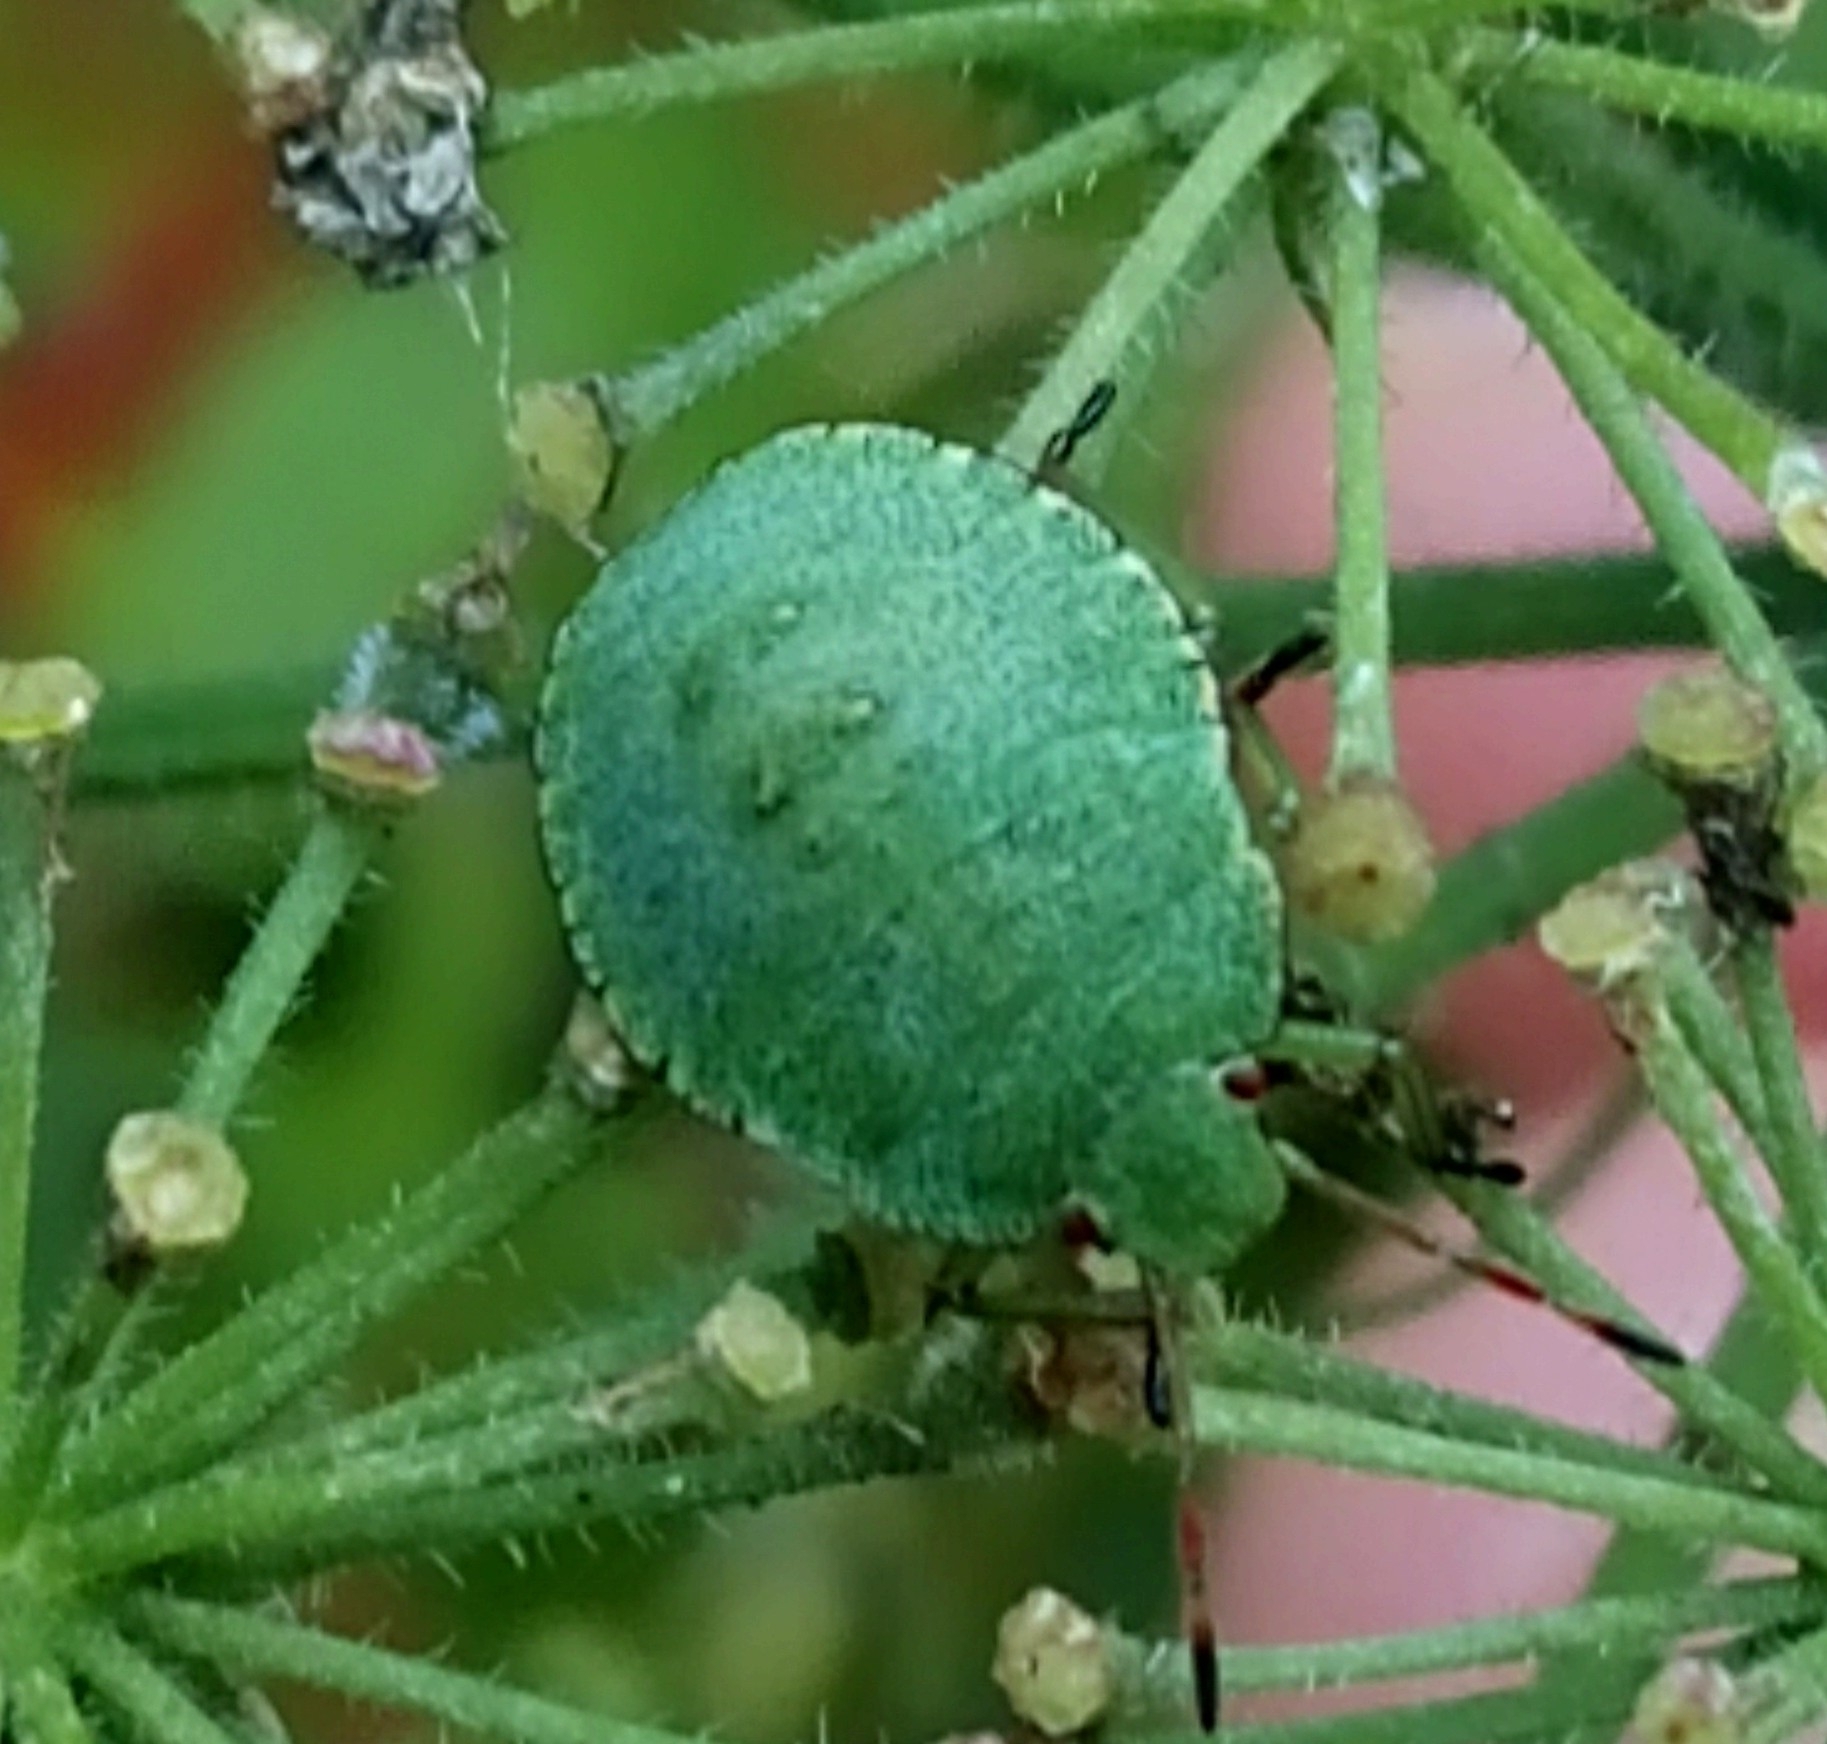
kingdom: Animalia
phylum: Arthropoda
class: Insecta
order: Hemiptera
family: Pentatomidae
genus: Palomena
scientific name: Palomena prasina
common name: Green shieldbug
